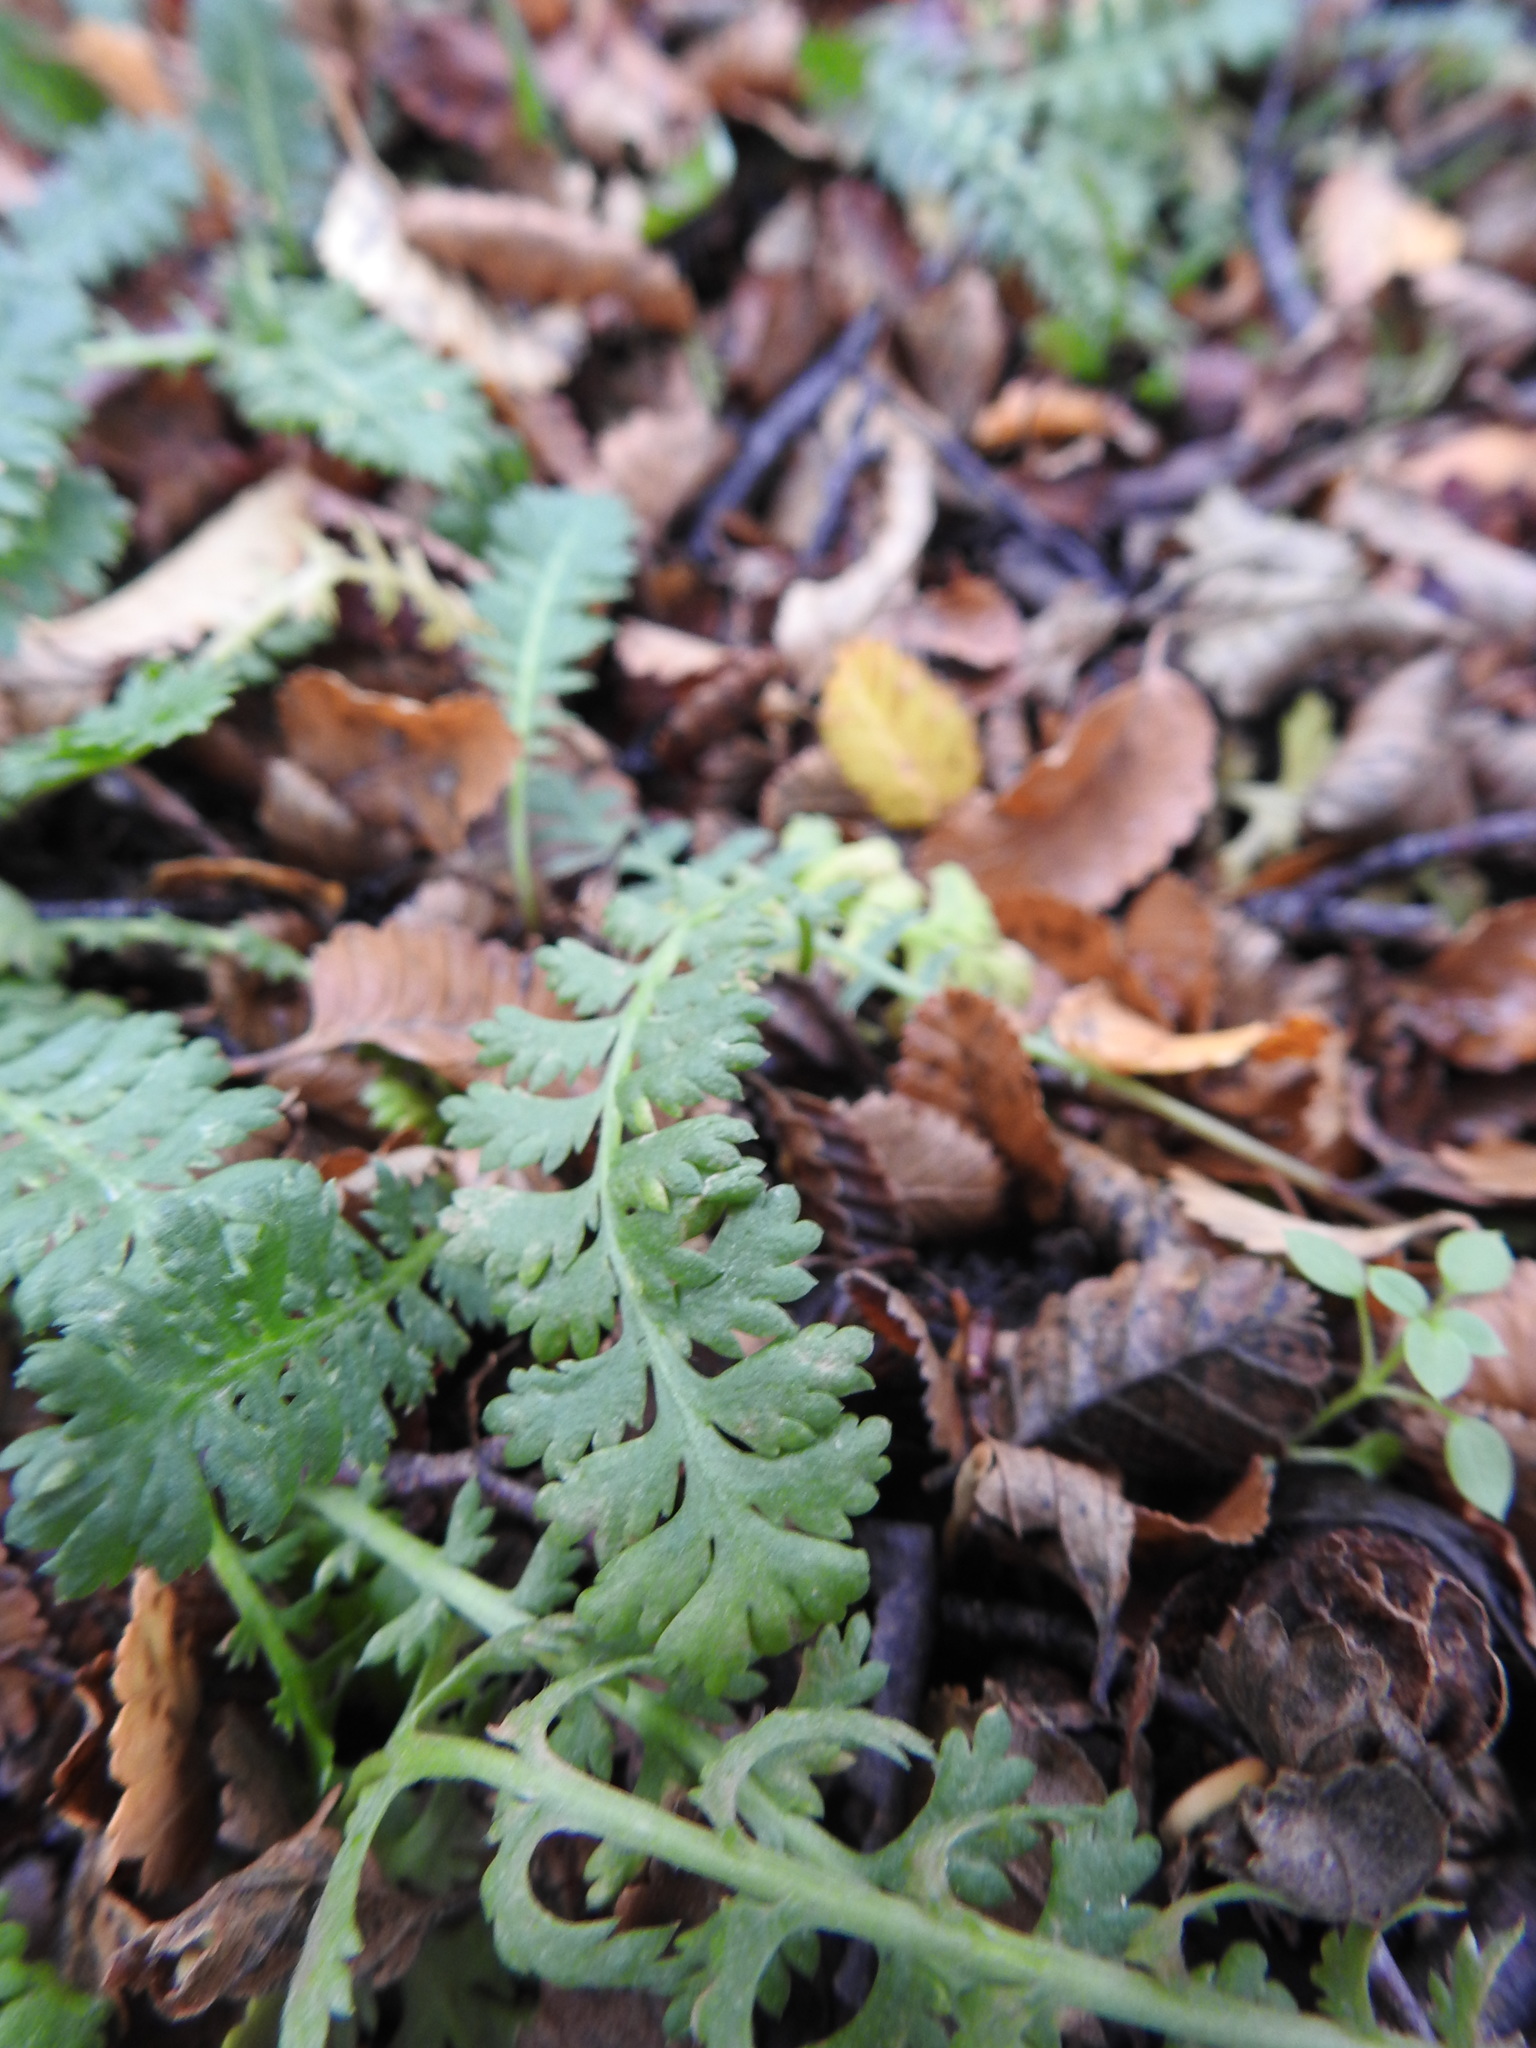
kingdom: Plantae
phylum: Tracheophyta
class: Magnoliopsida
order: Asterales
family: Asteraceae
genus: Leptinella
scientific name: Leptinella scariosa
